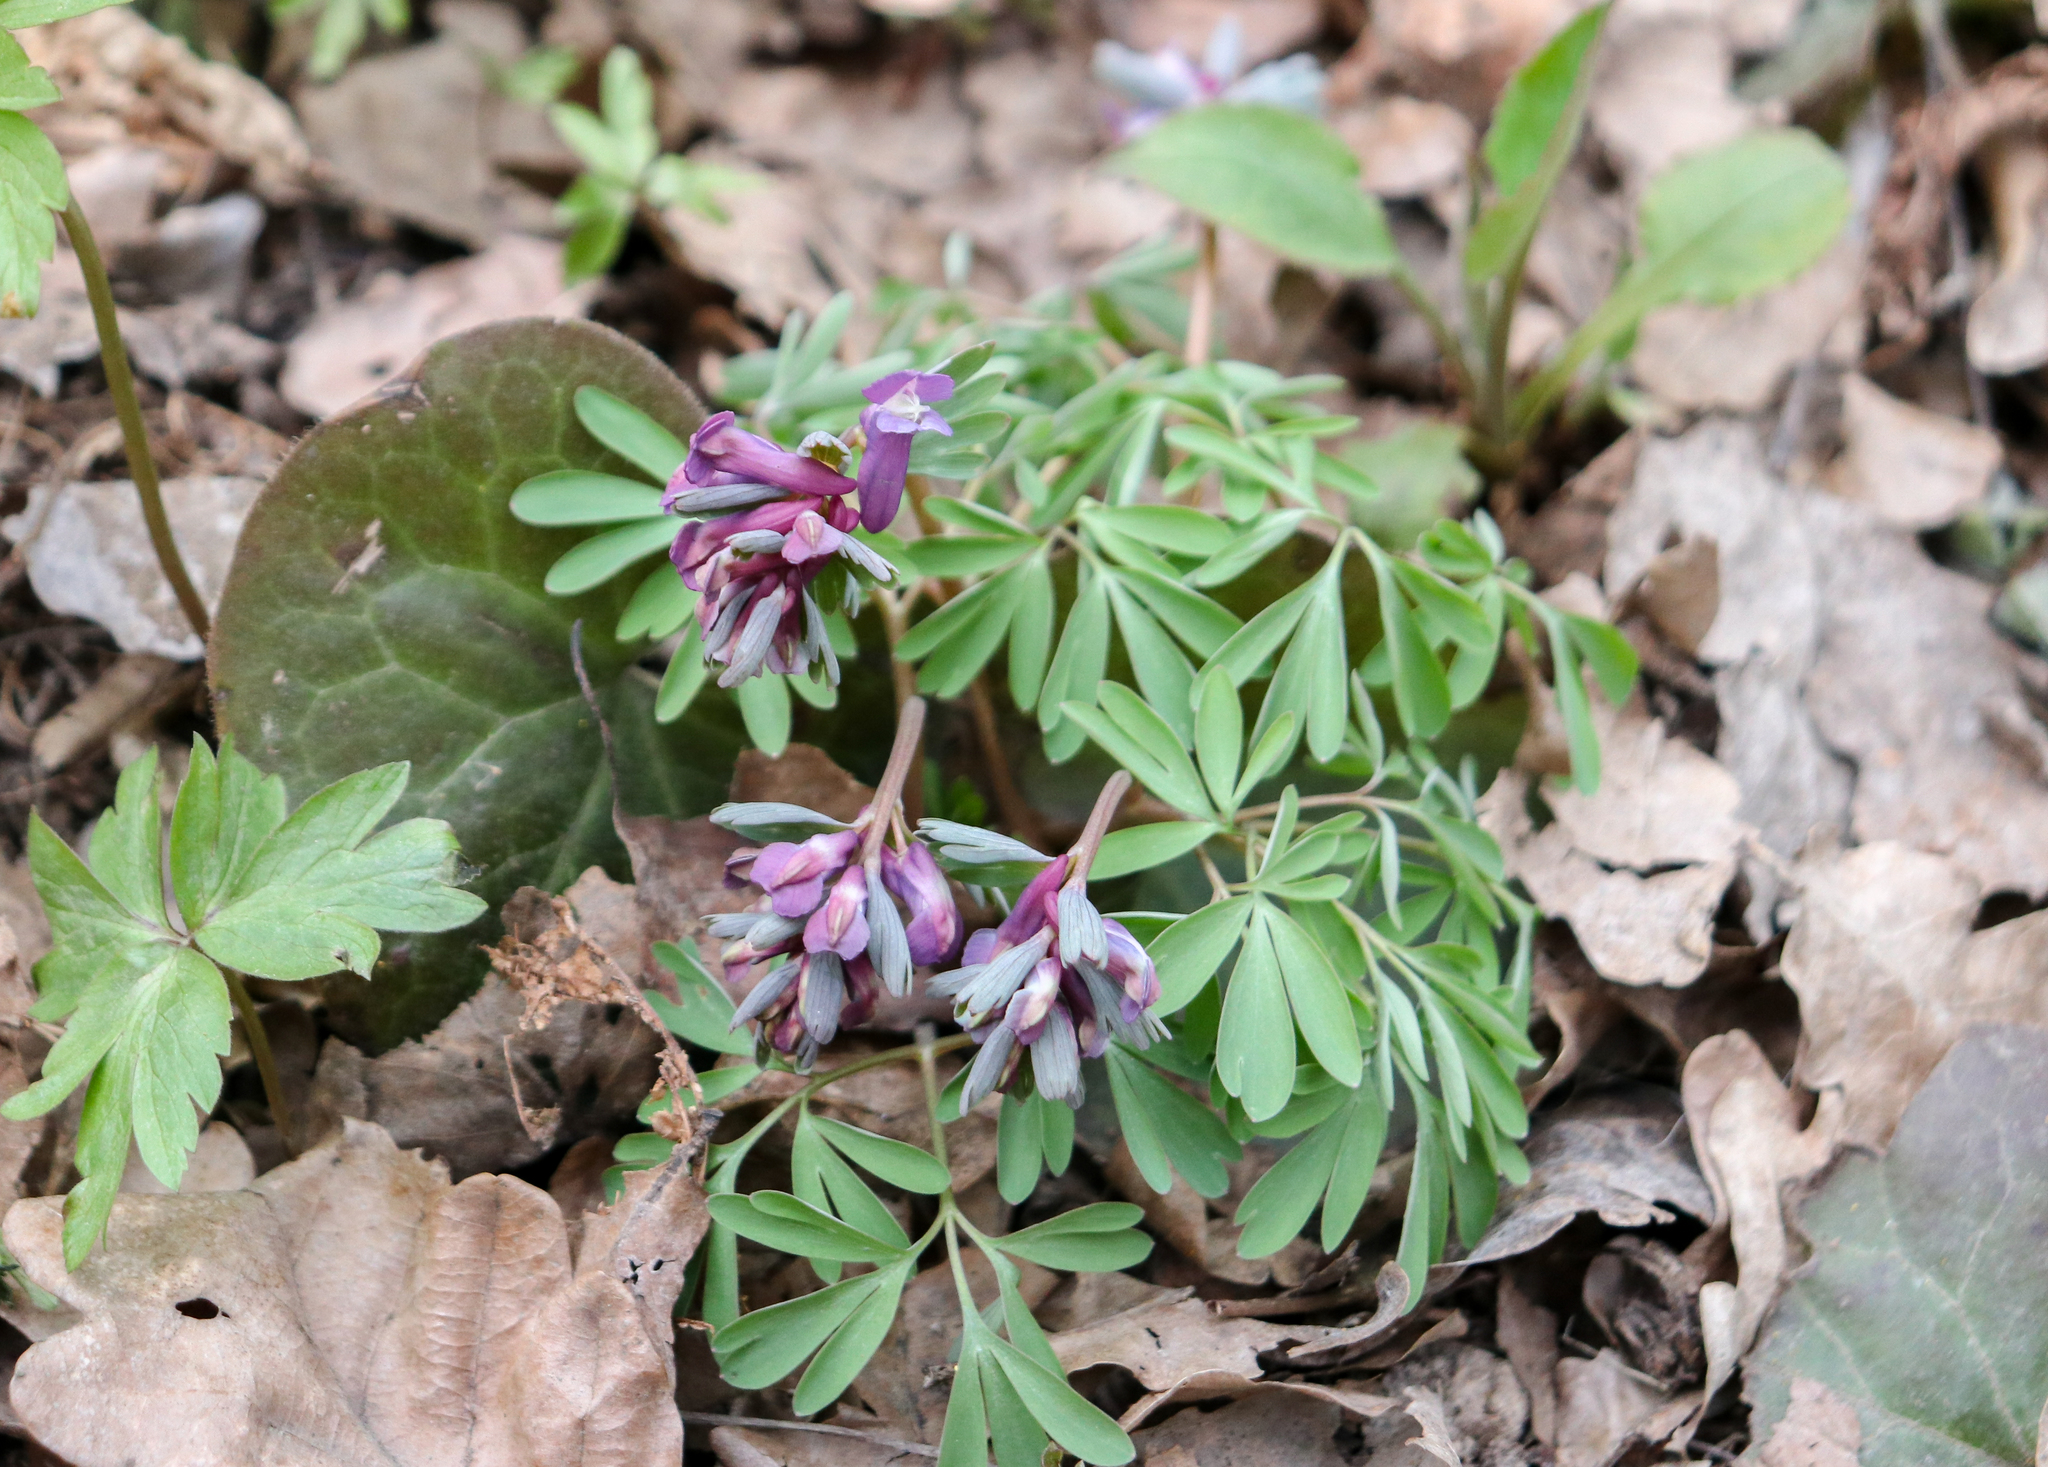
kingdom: Plantae
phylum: Tracheophyta
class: Magnoliopsida
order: Ranunculales
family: Papaveraceae
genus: Corydalis
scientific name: Corydalis solida
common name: Bird-in-a-bush
